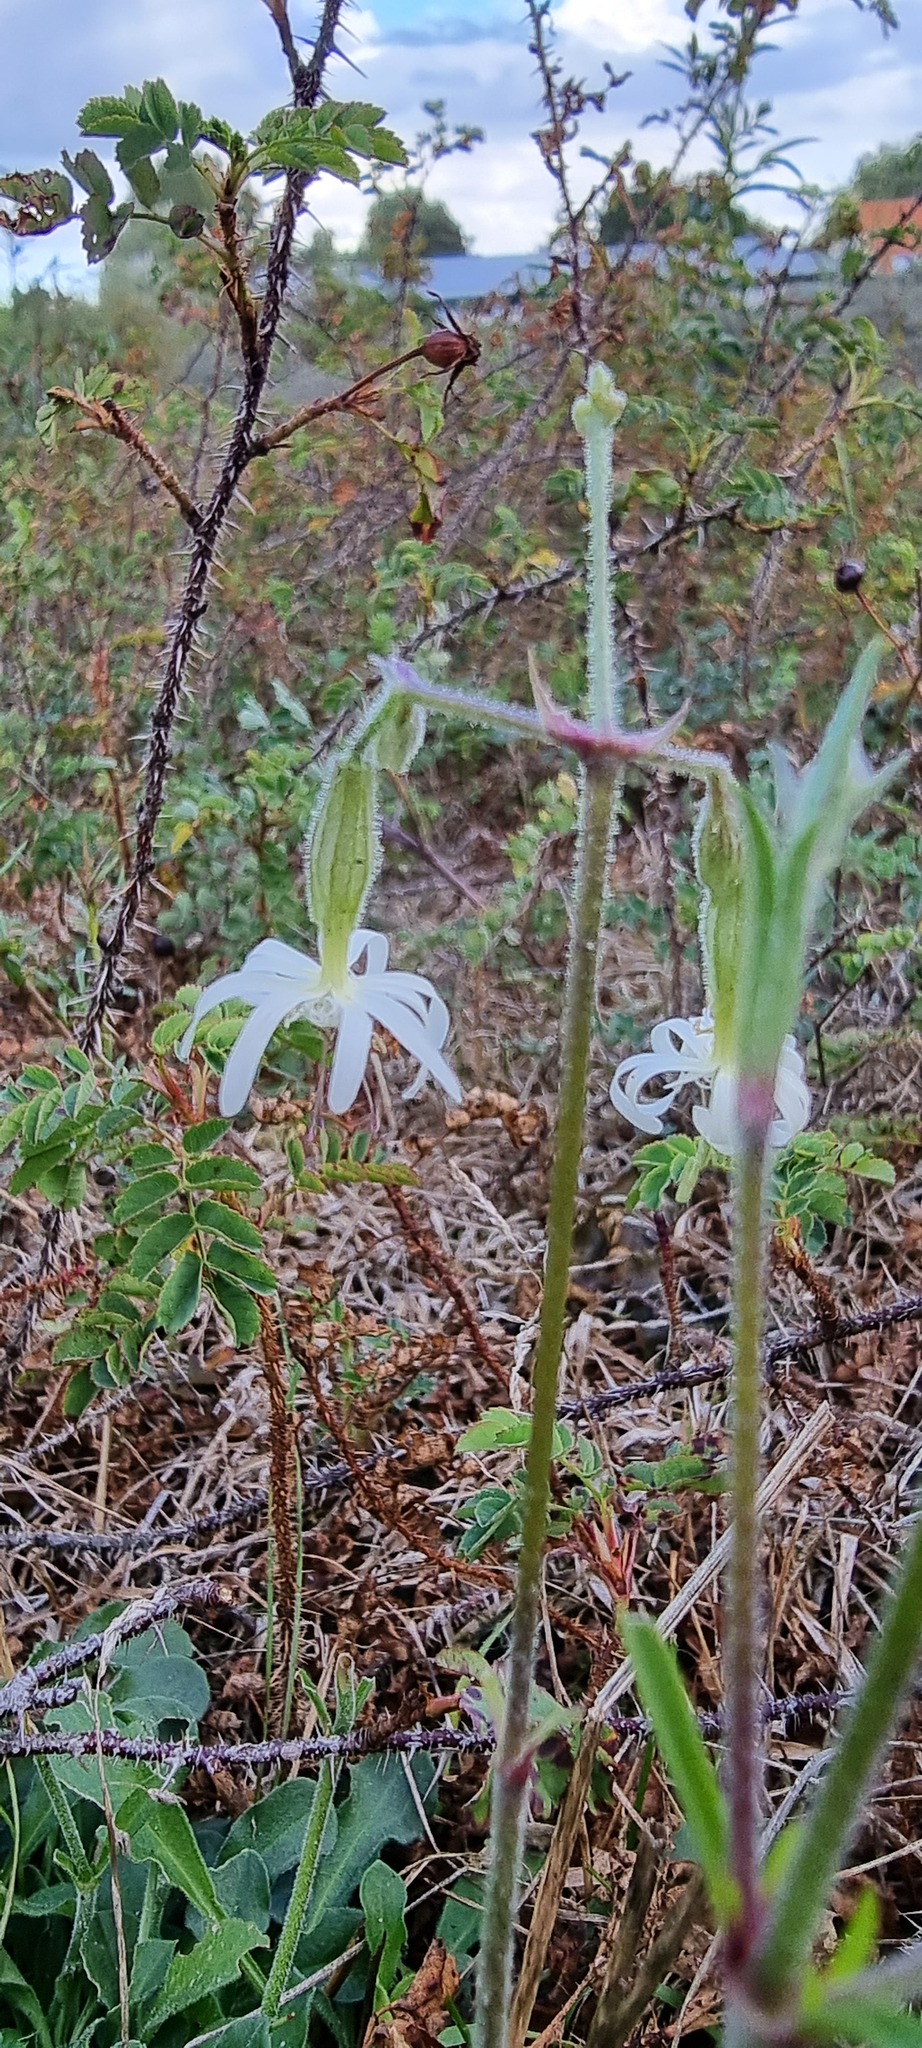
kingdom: Plantae
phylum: Tracheophyta
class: Magnoliopsida
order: Caryophyllales
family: Caryophyllaceae
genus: Silene
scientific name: Silene nutans
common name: Nottingham catchfly
